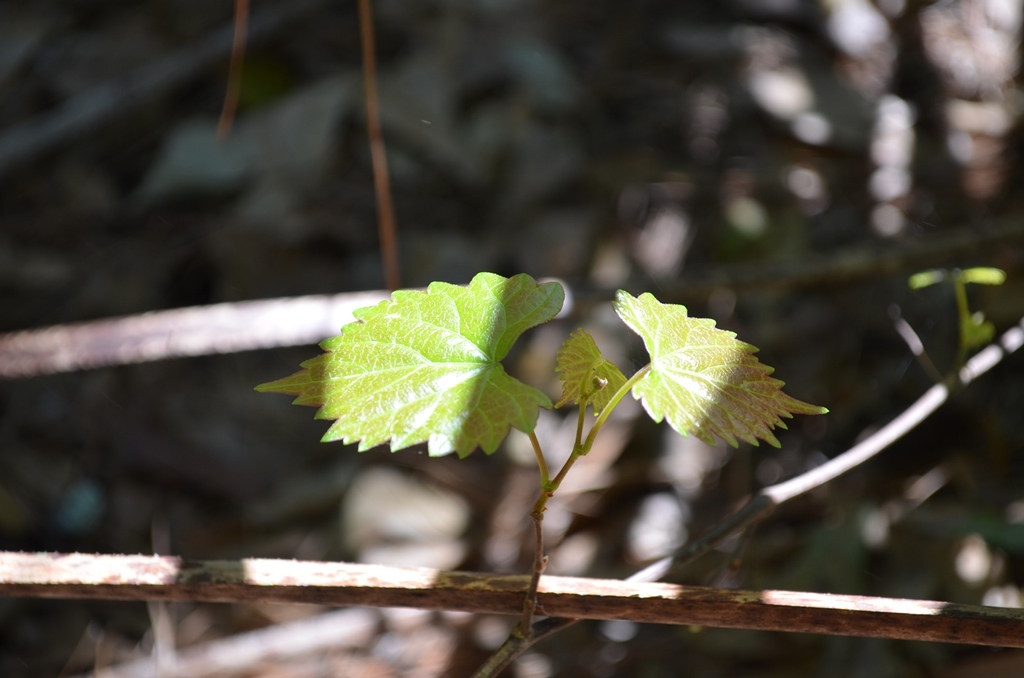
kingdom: Plantae
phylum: Tracheophyta
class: Magnoliopsida
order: Vitales
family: Vitaceae
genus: Vitis
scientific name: Vitis rotundifolia
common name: Muscadine grape
